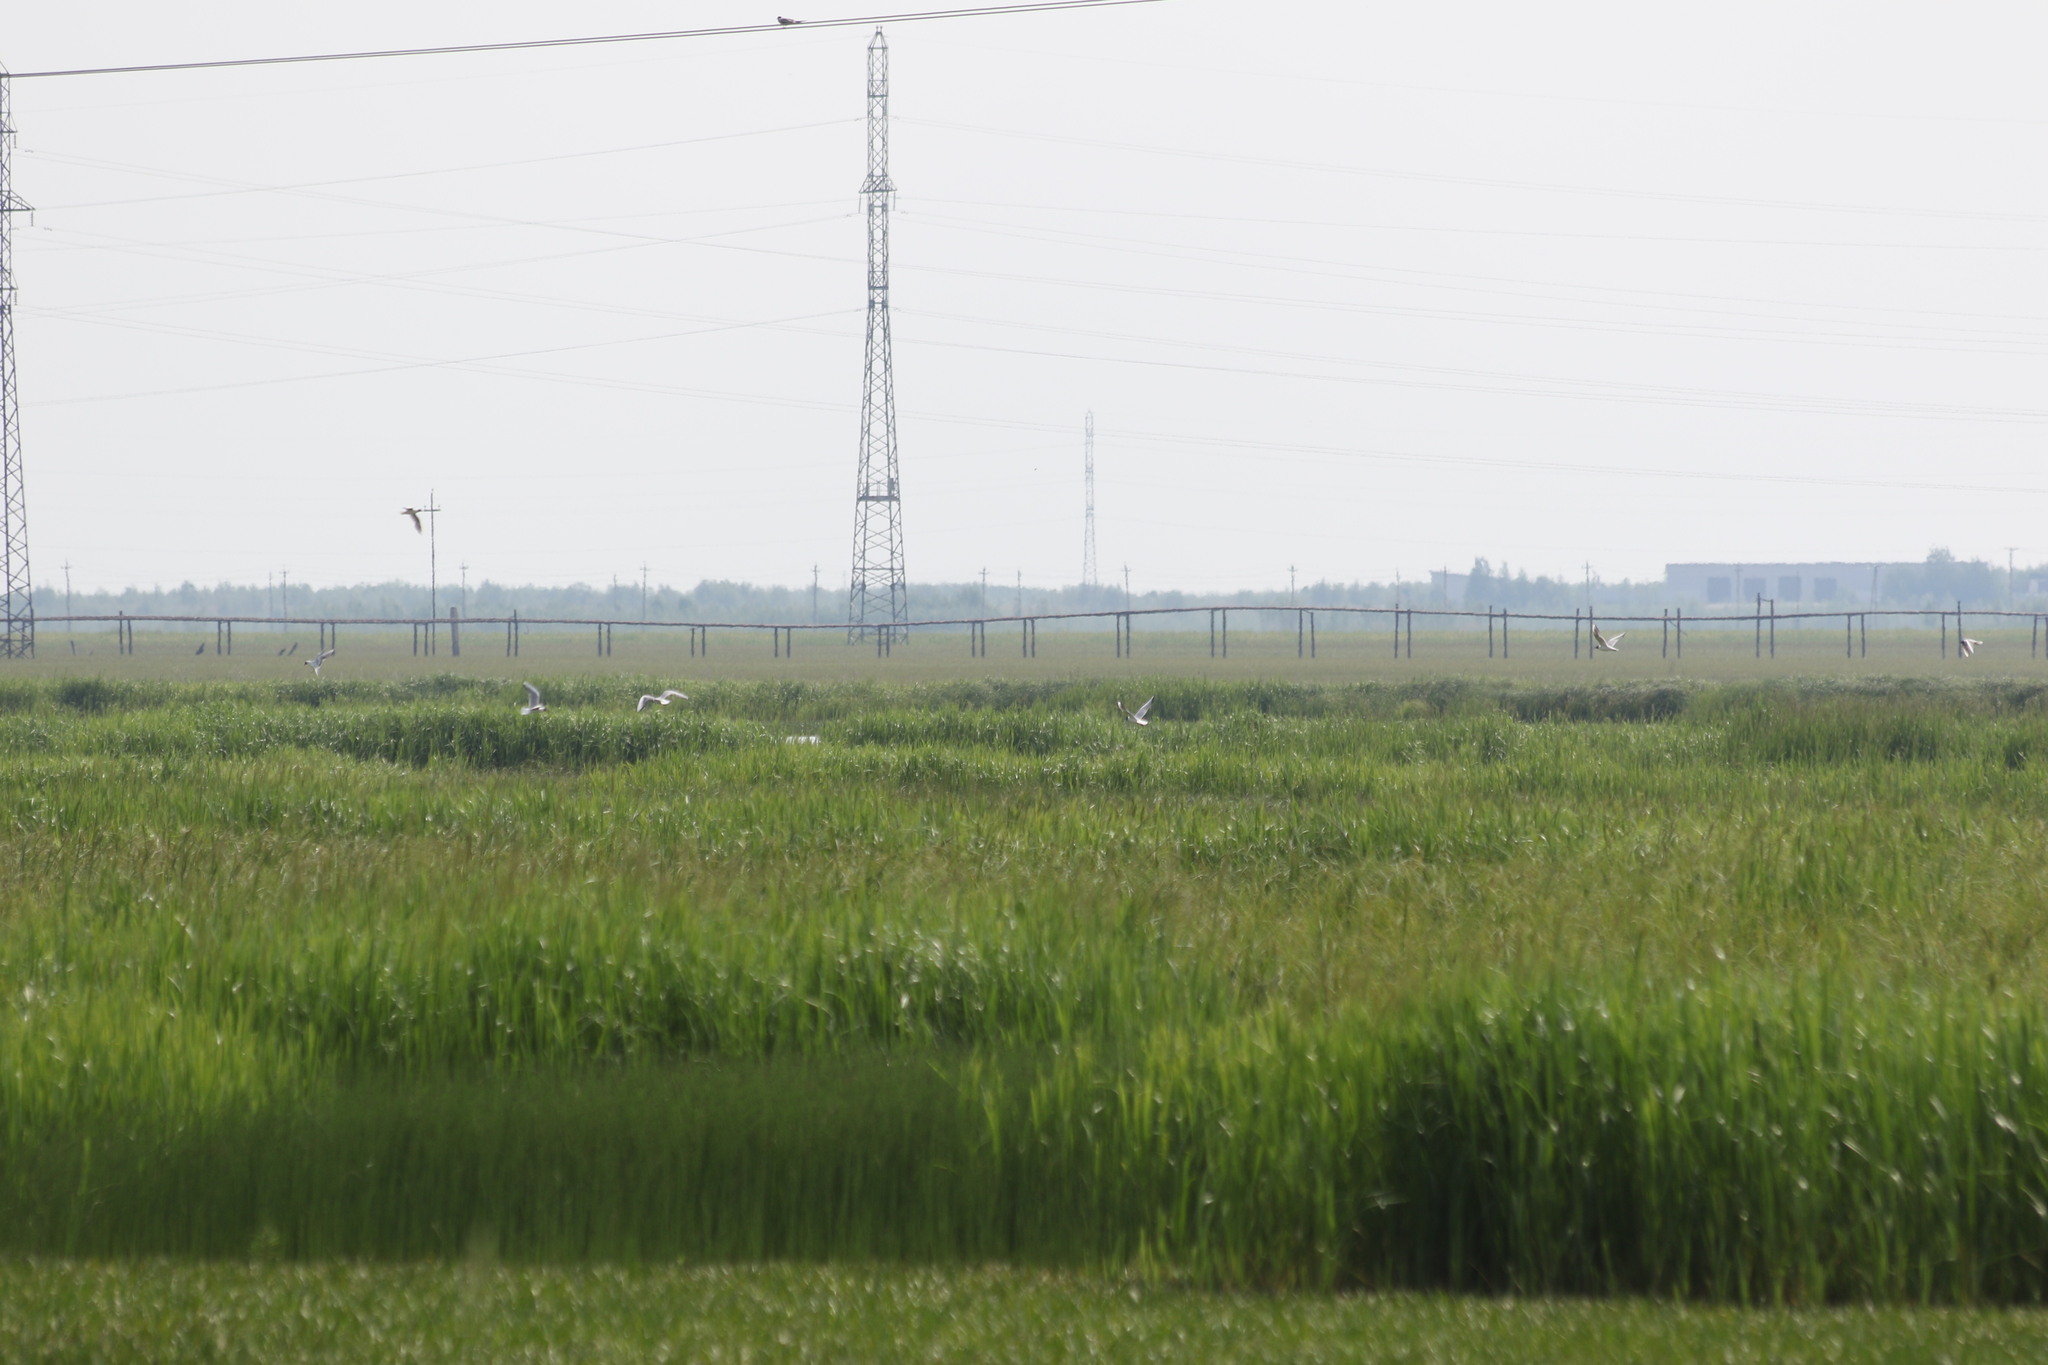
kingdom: Animalia
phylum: Chordata
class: Aves
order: Charadriiformes
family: Laridae
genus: Chroicocephalus
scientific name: Chroicocephalus ridibundus
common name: Black-headed gull
